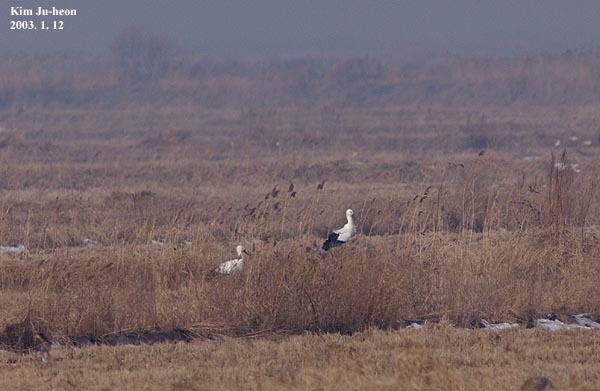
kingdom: Animalia
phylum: Chordata
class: Aves
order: Ciconiiformes
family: Ciconiidae
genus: Ciconia
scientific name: Ciconia boyciana
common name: Oriental stork
